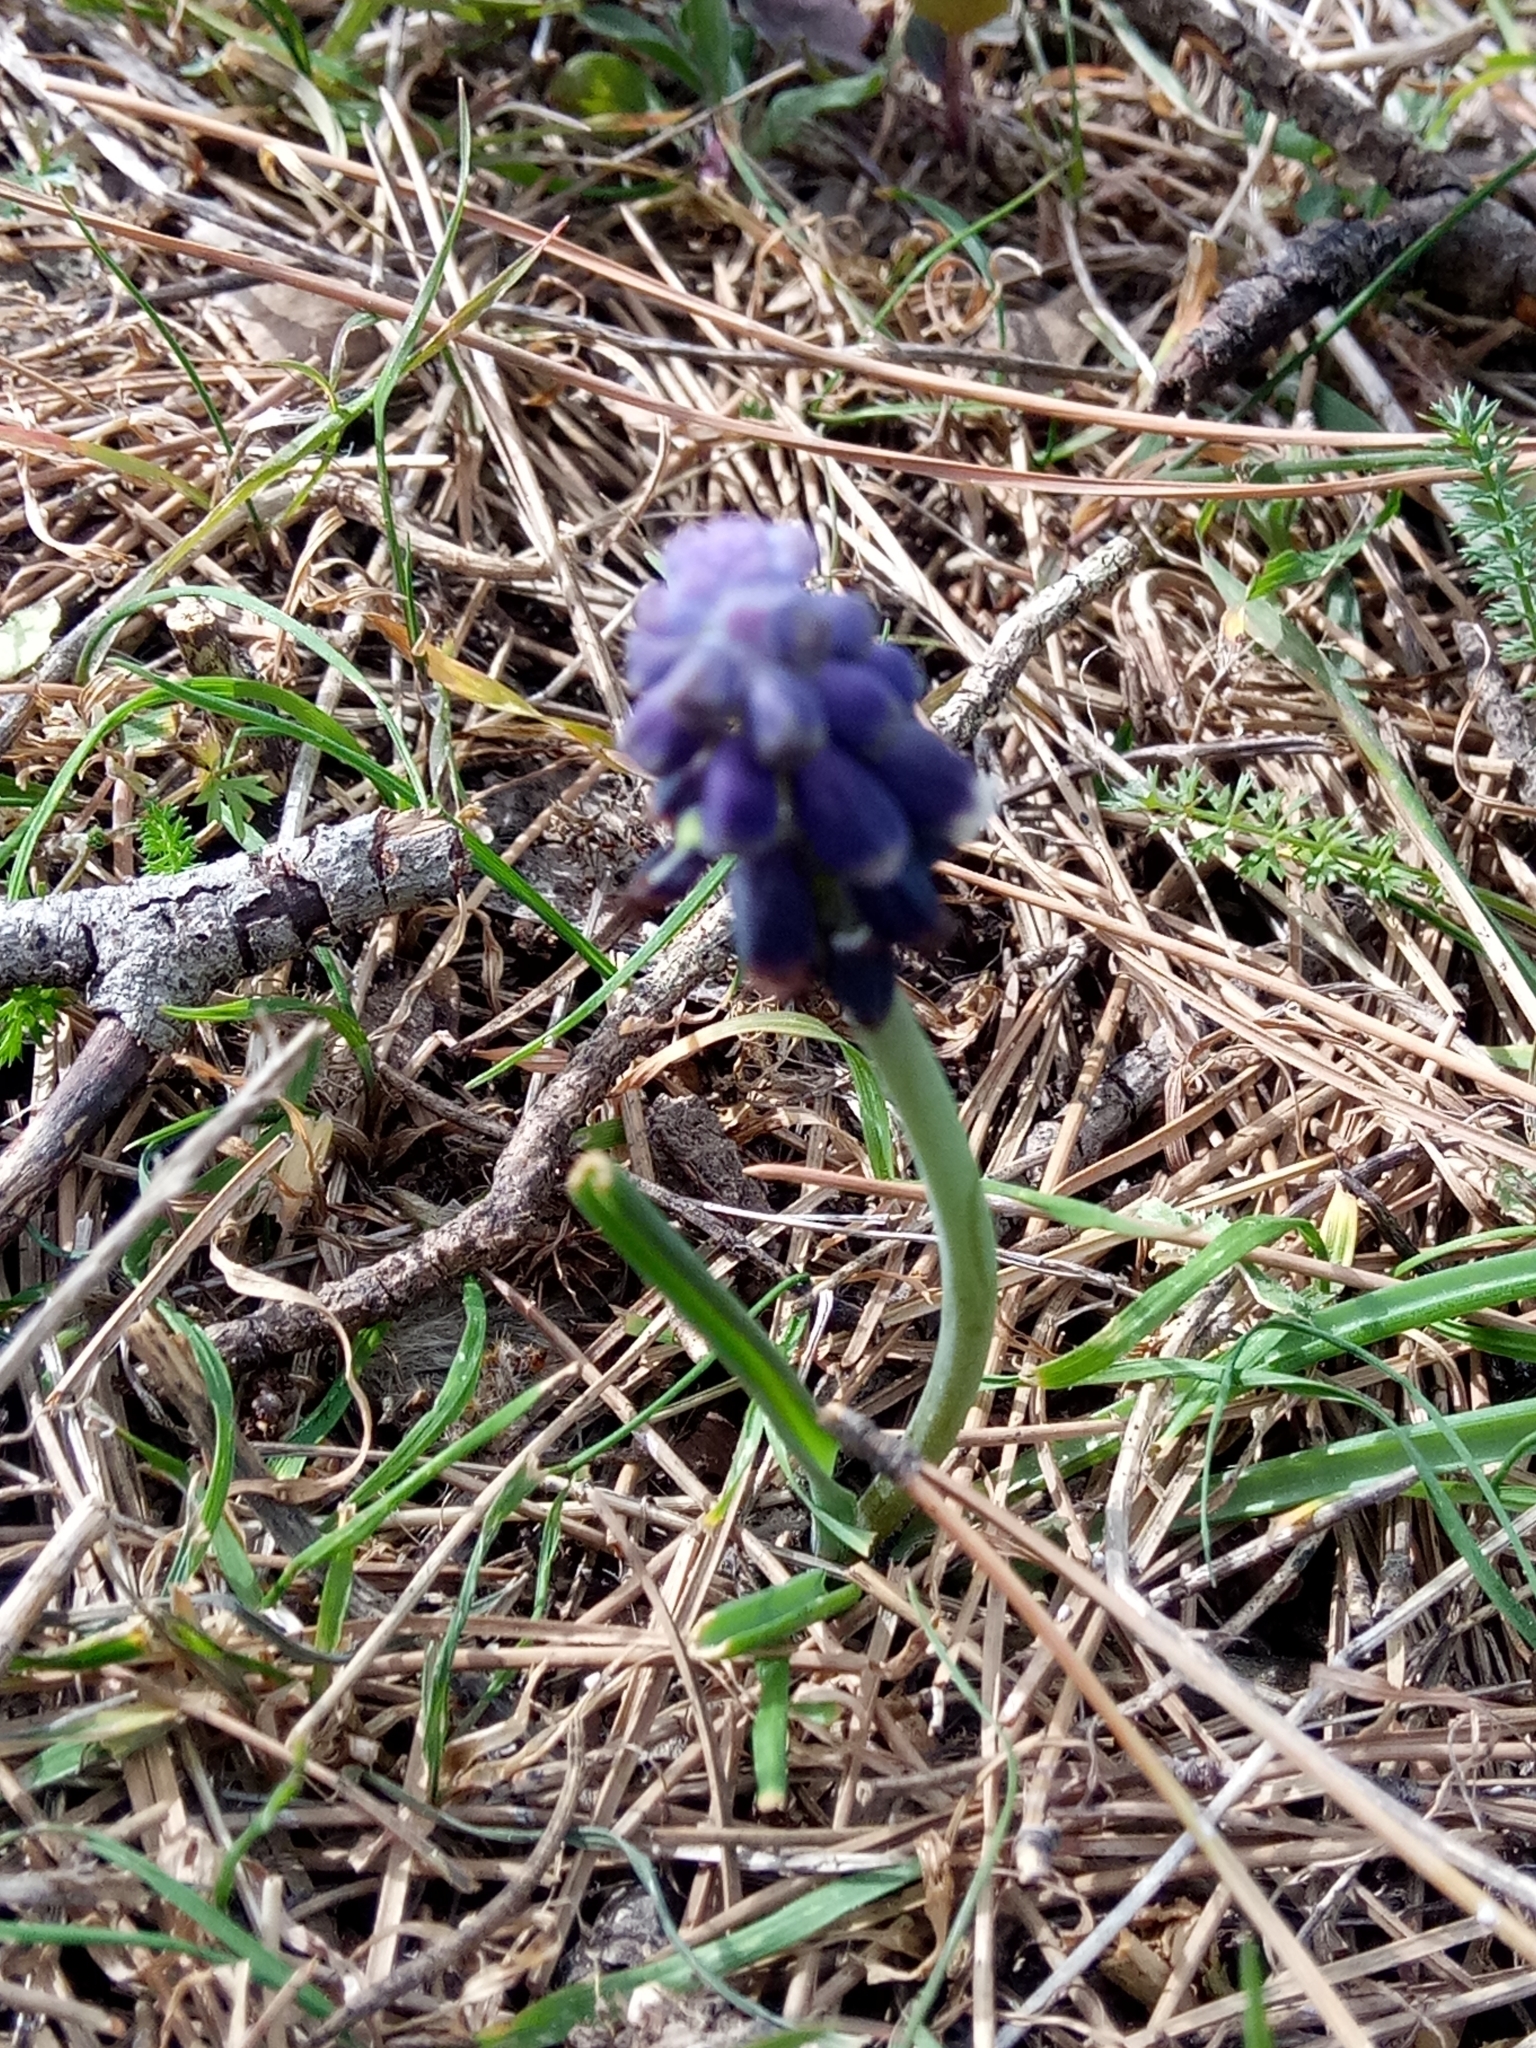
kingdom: Plantae
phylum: Tracheophyta
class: Liliopsida
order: Asparagales
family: Asparagaceae
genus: Muscari
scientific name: Muscari baeticum
